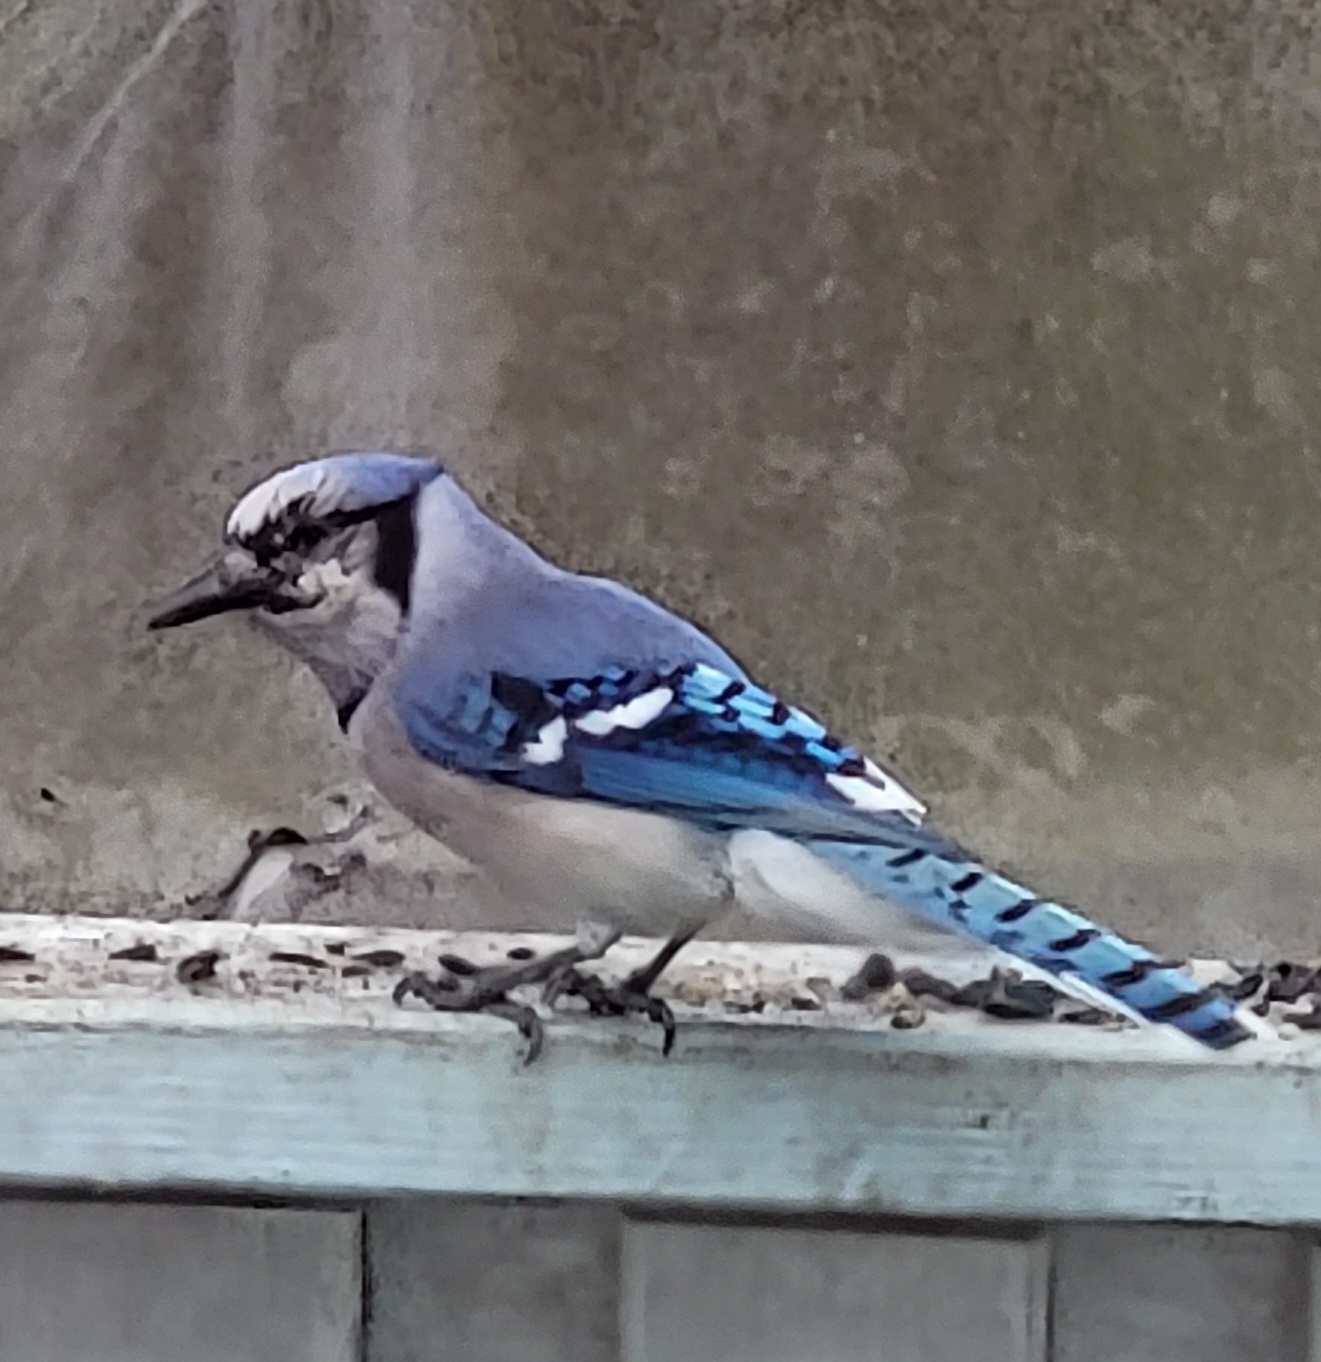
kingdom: Animalia
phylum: Chordata
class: Aves
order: Passeriformes
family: Corvidae
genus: Cyanocitta
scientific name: Cyanocitta cristata
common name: Blue jay
